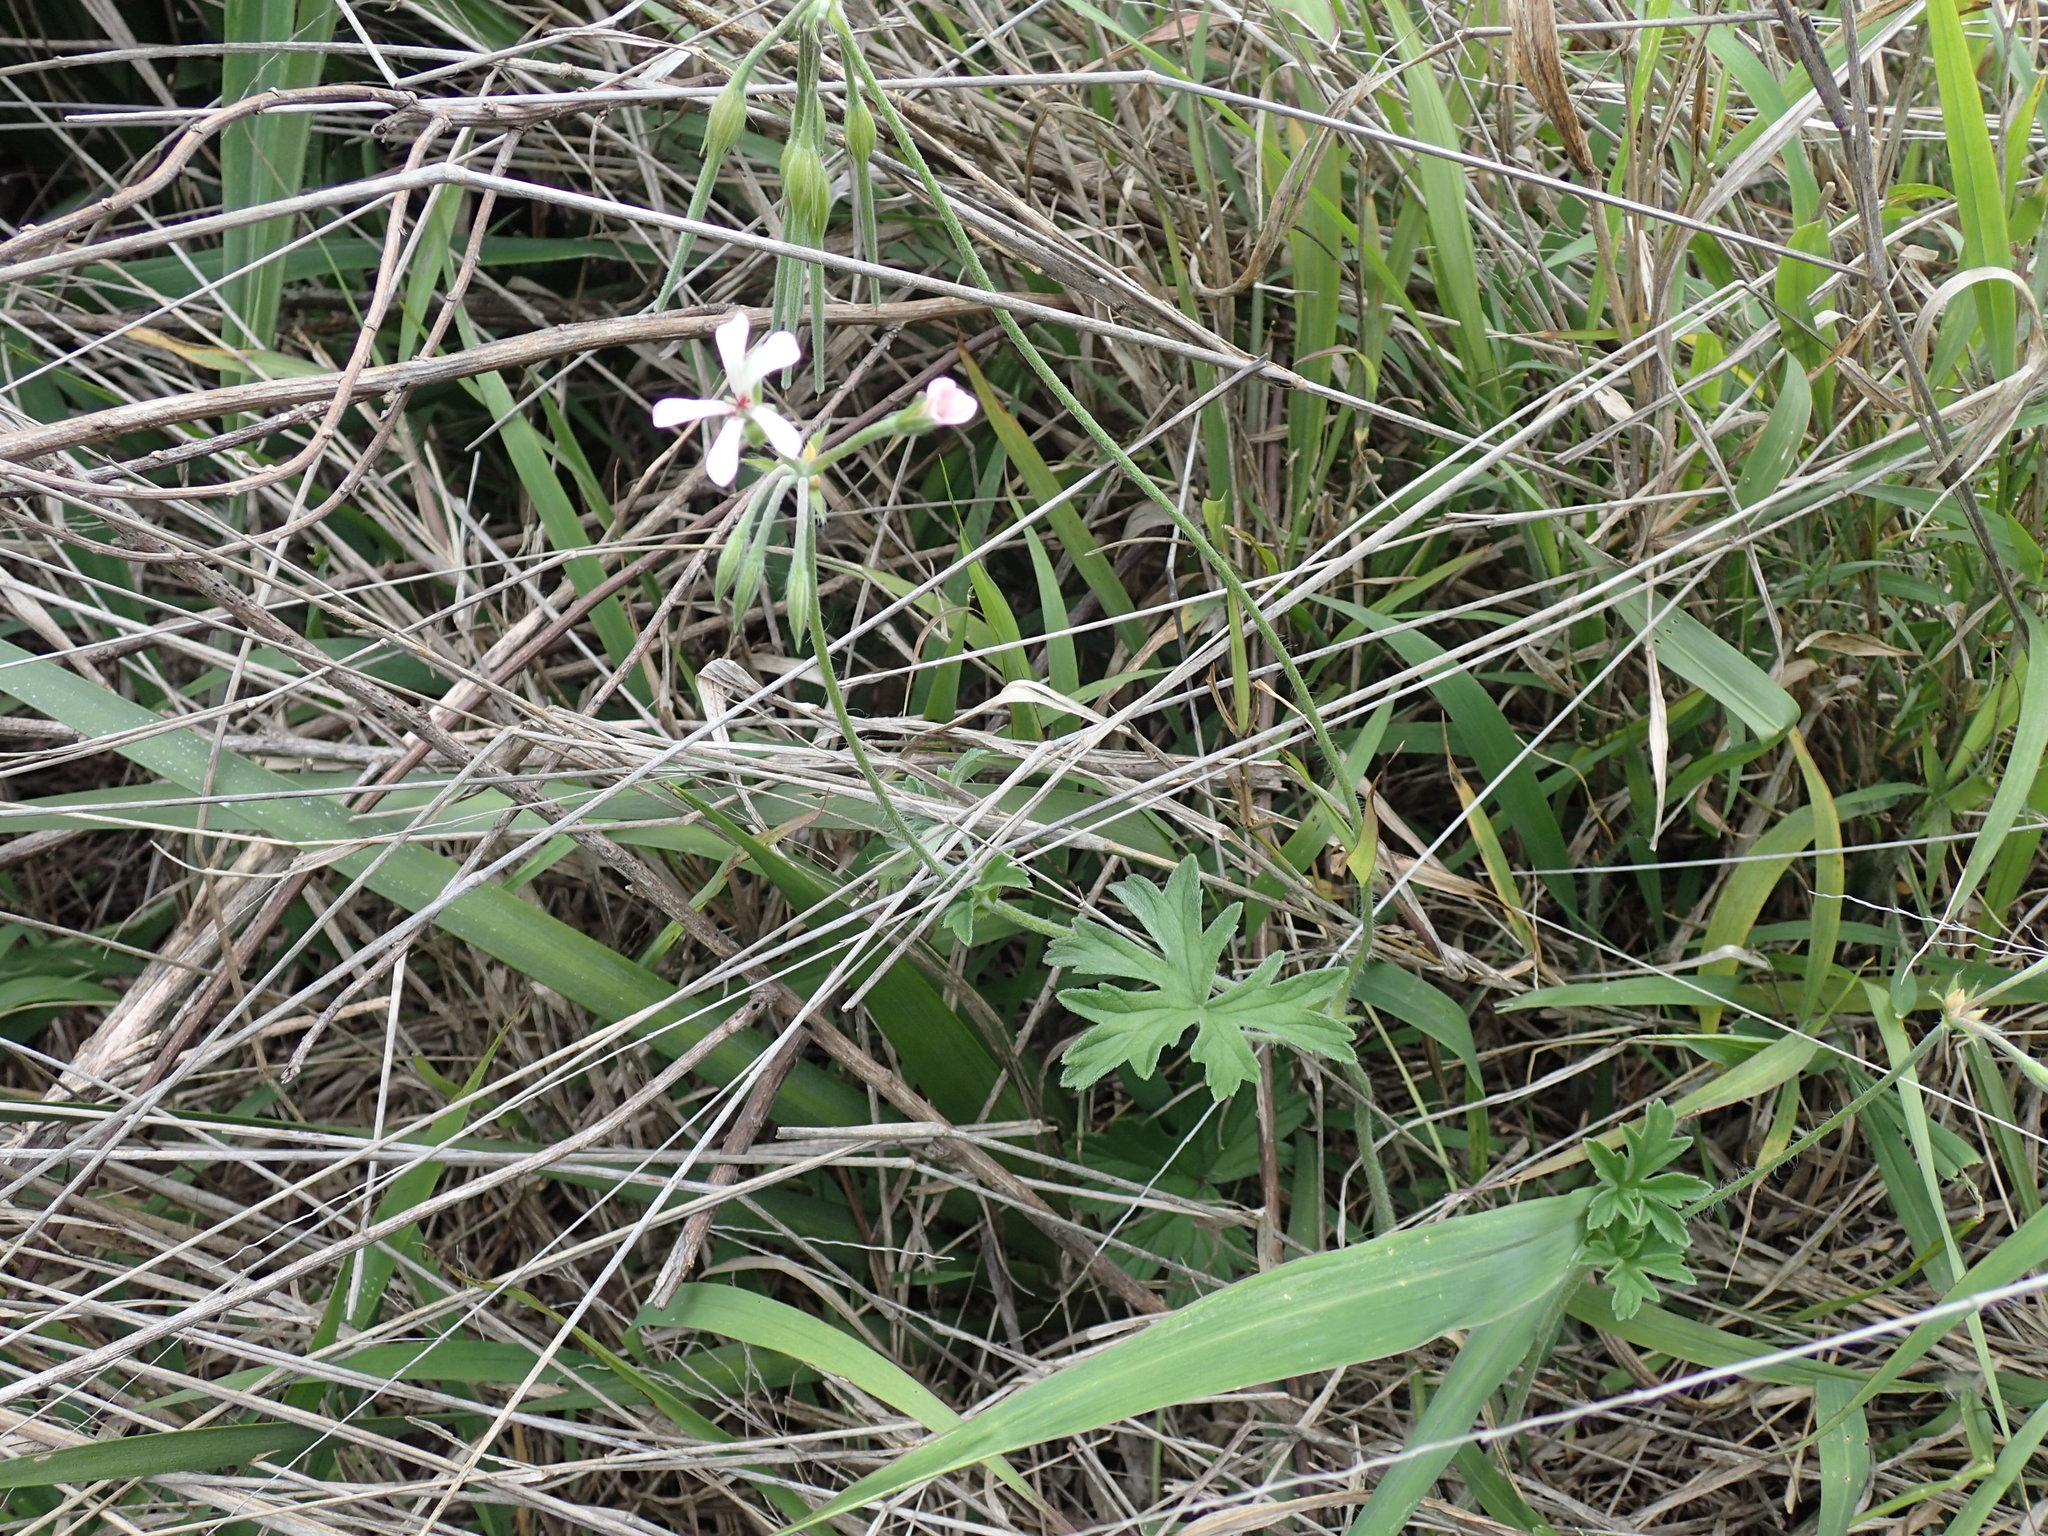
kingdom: Plantae
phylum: Tracheophyta
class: Magnoliopsida
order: Geraniales
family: Geraniaceae
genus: Pelargonium
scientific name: Pelargonium alchemilloides
